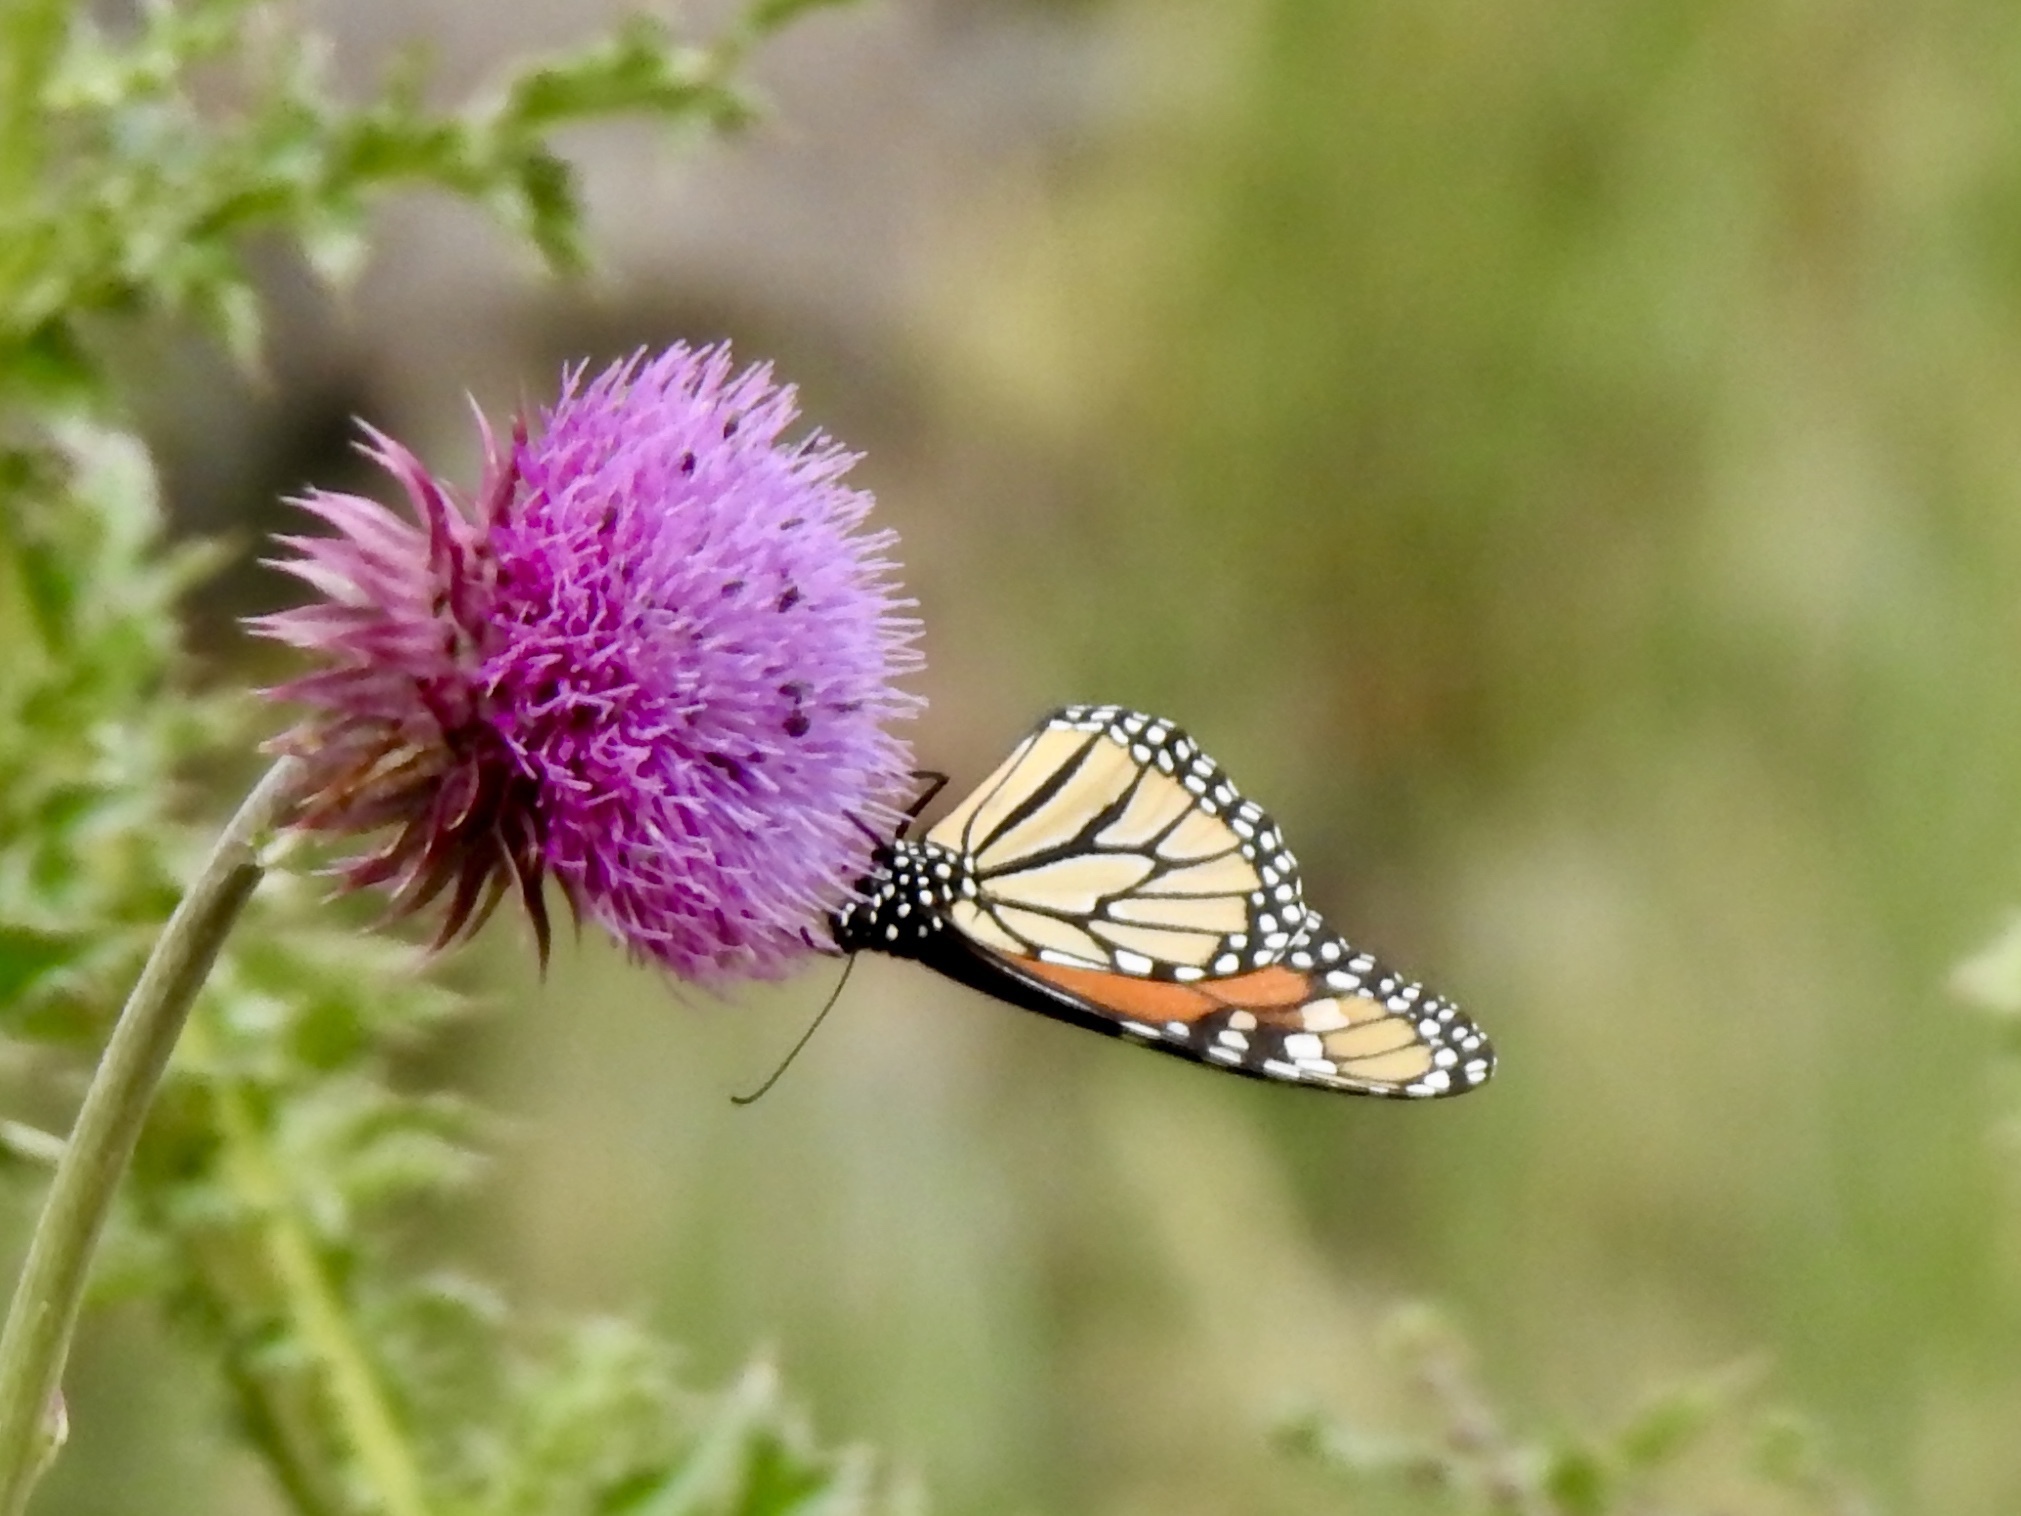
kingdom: Animalia
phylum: Arthropoda
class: Insecta
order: Lepidoptera
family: Nymphalidae
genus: Danaus
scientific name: Danaus plexippus
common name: Monarch
